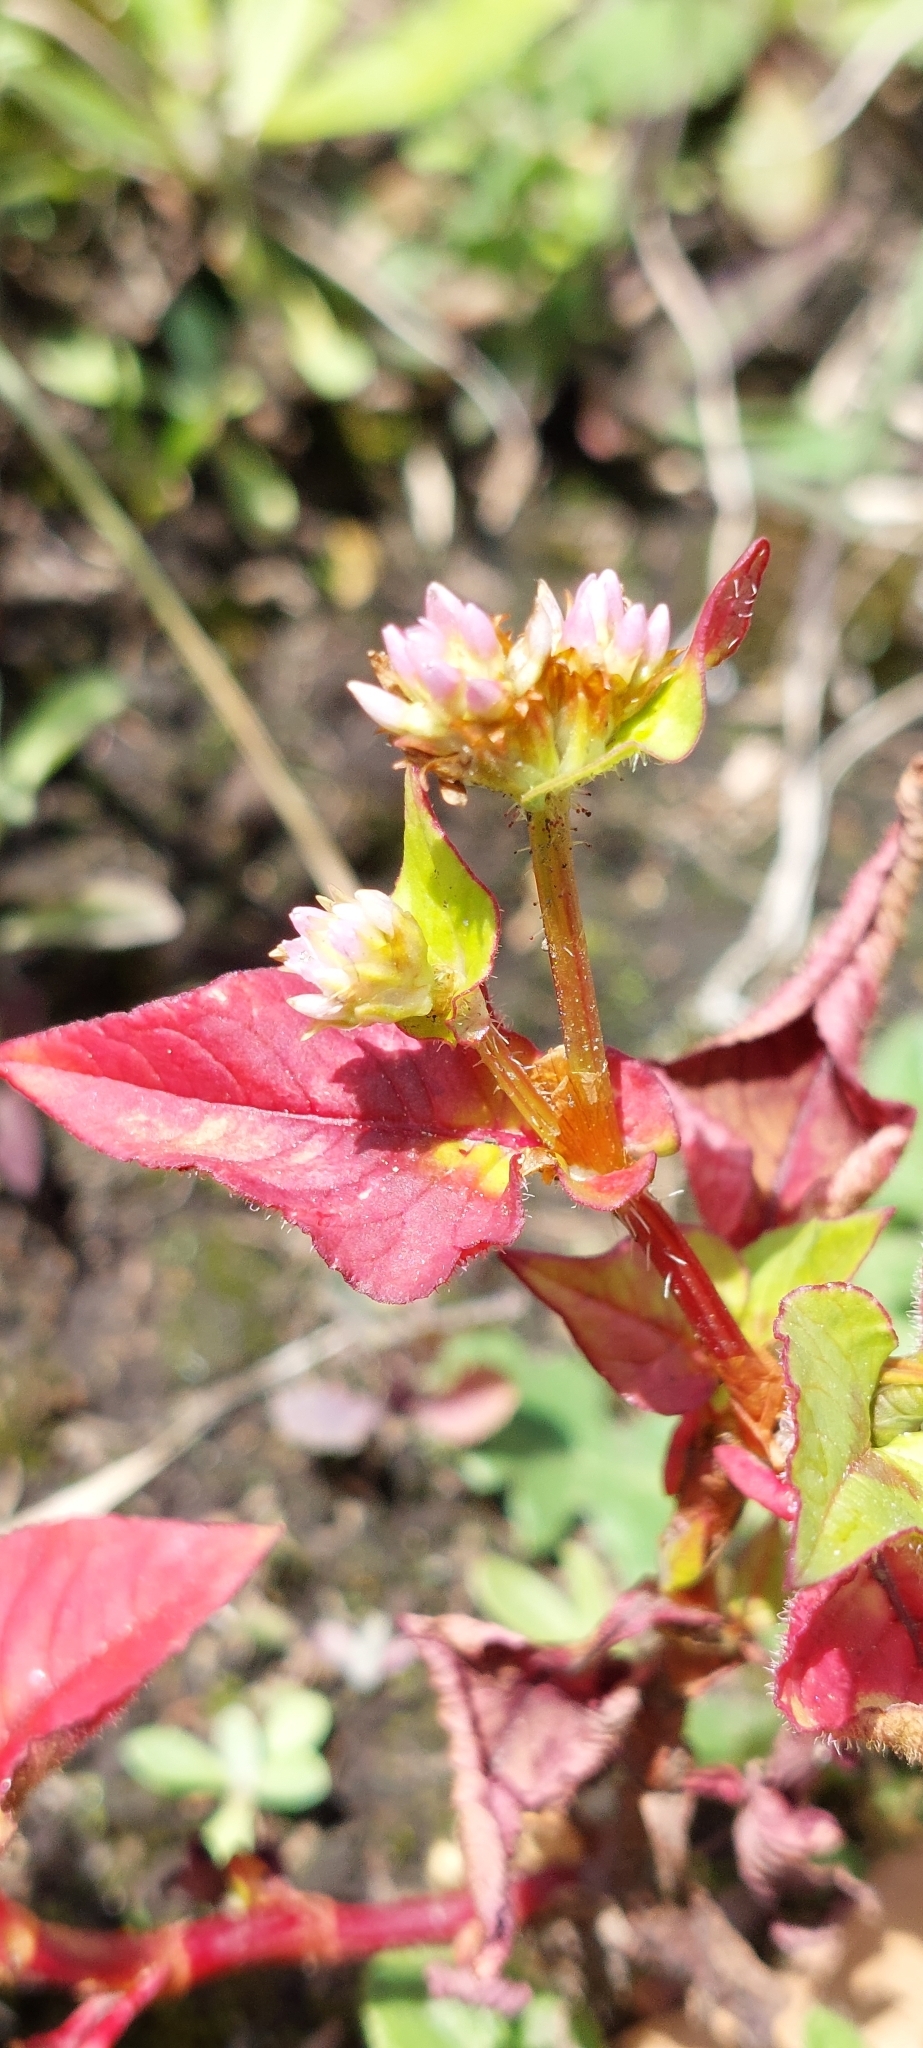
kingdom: Plantae
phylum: Tracheophyta
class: Magnoliopsida
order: Caryophyllales
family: Polygonaceae
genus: Persicaria
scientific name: Persicaria nepalensis
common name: Nepal persicaria
